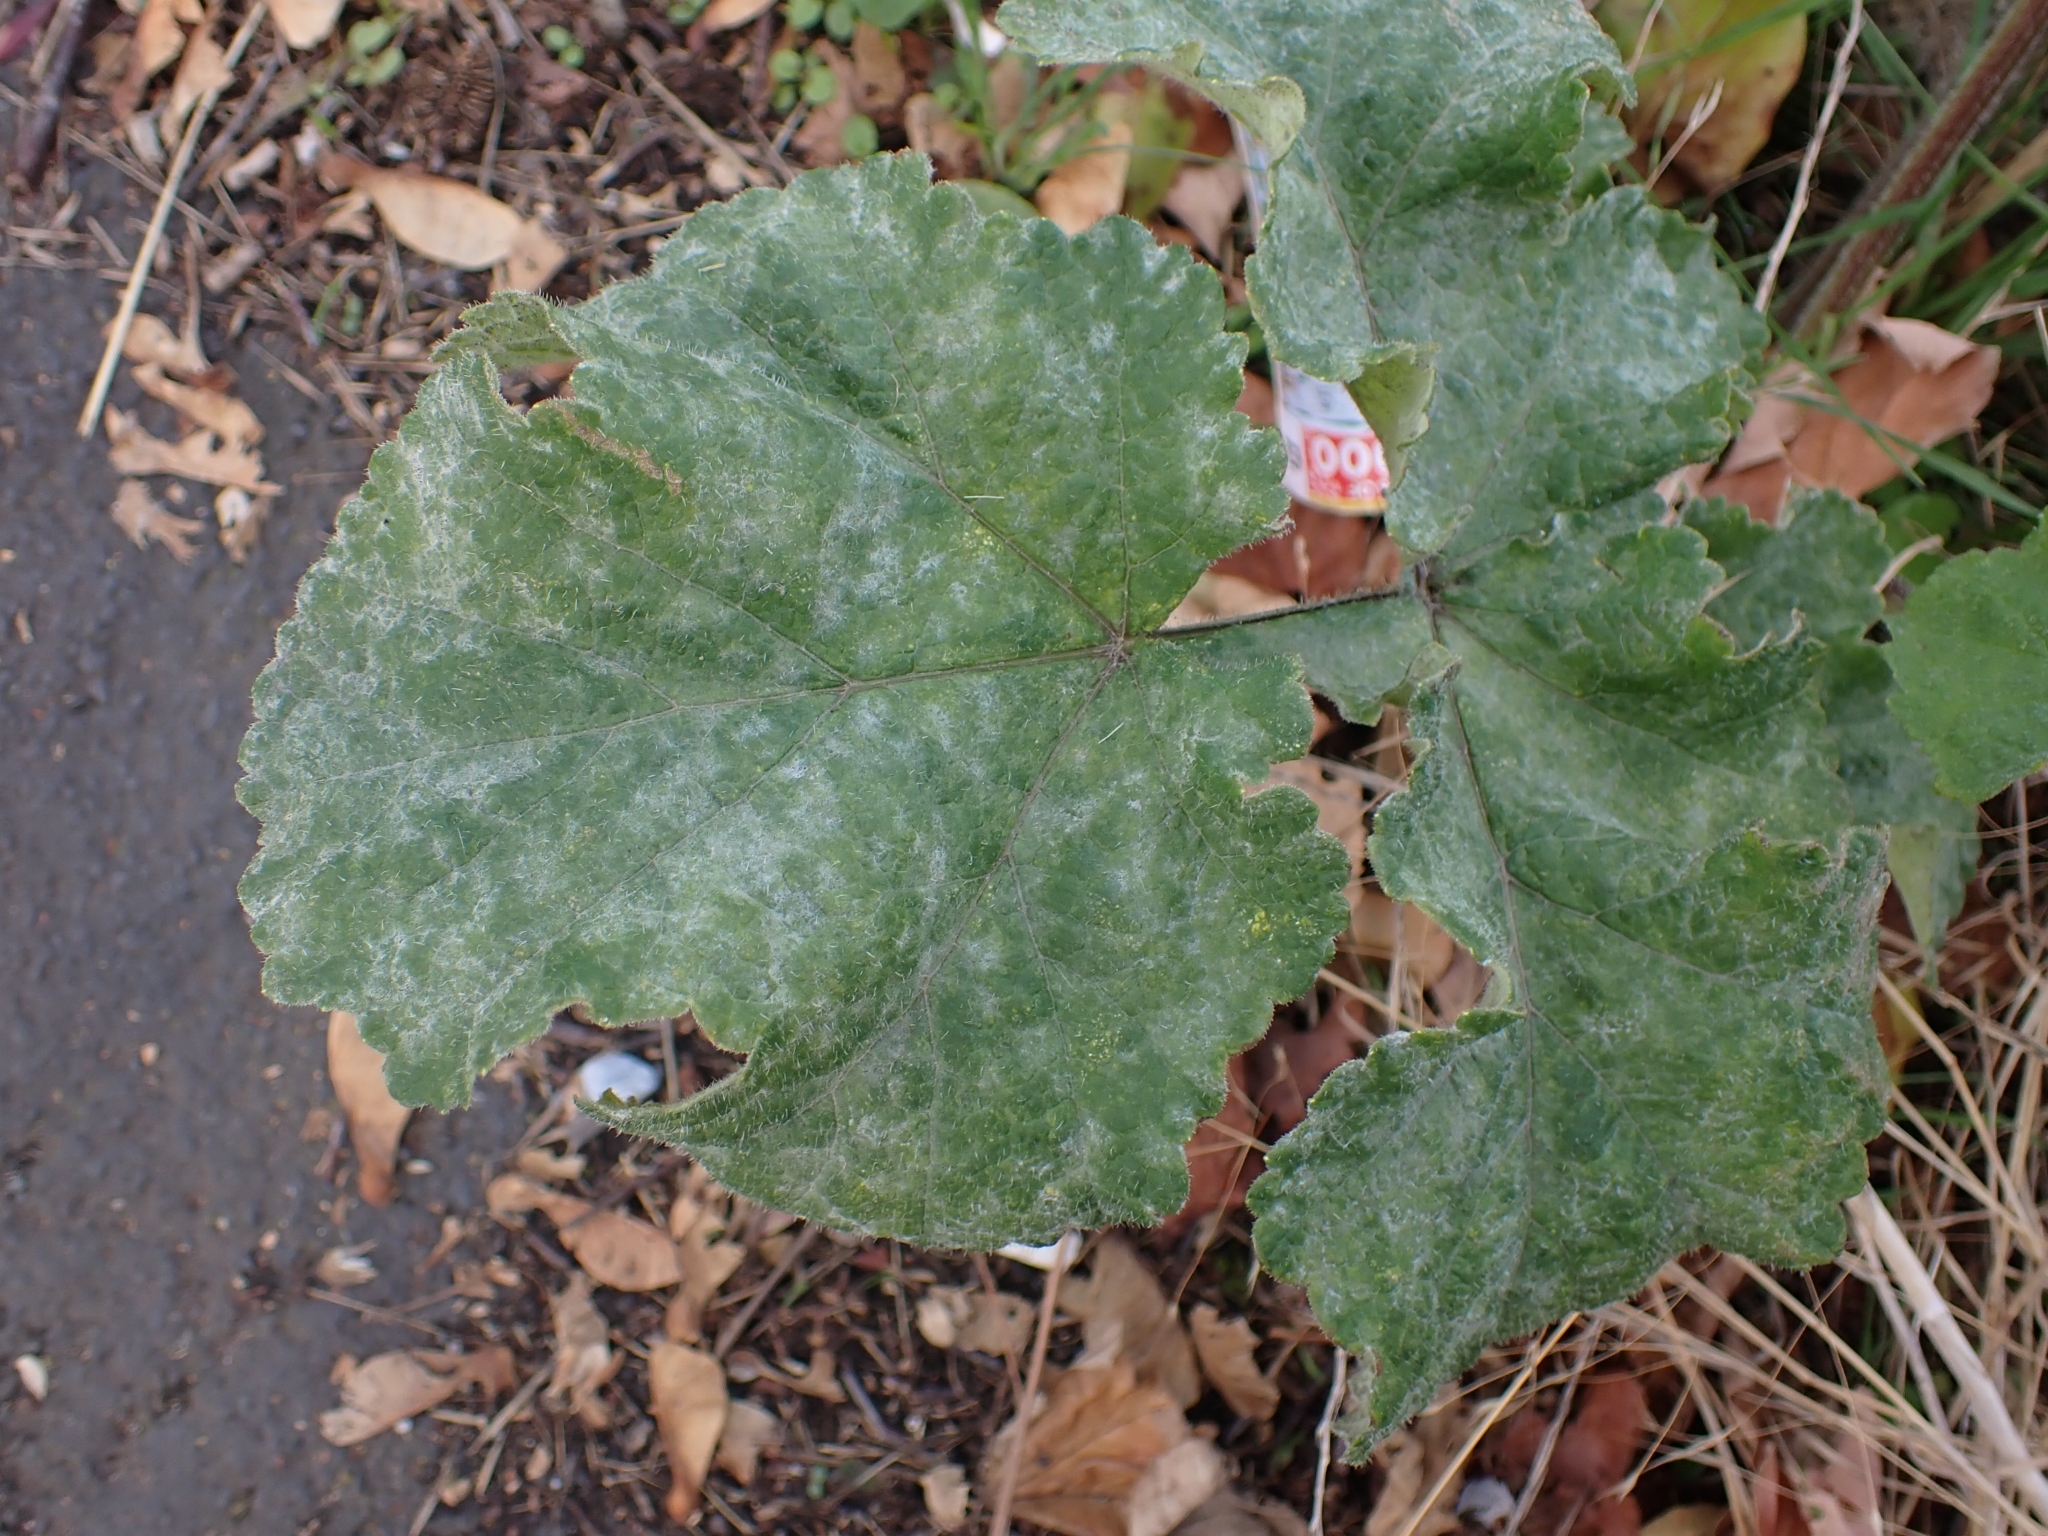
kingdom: Fungi
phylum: Ascomycota
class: Leotiomycetes
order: Helotiales
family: Erysiphaceae
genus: Erysiphe
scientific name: Erysiphe heraclei
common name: Umbellifer mildew
